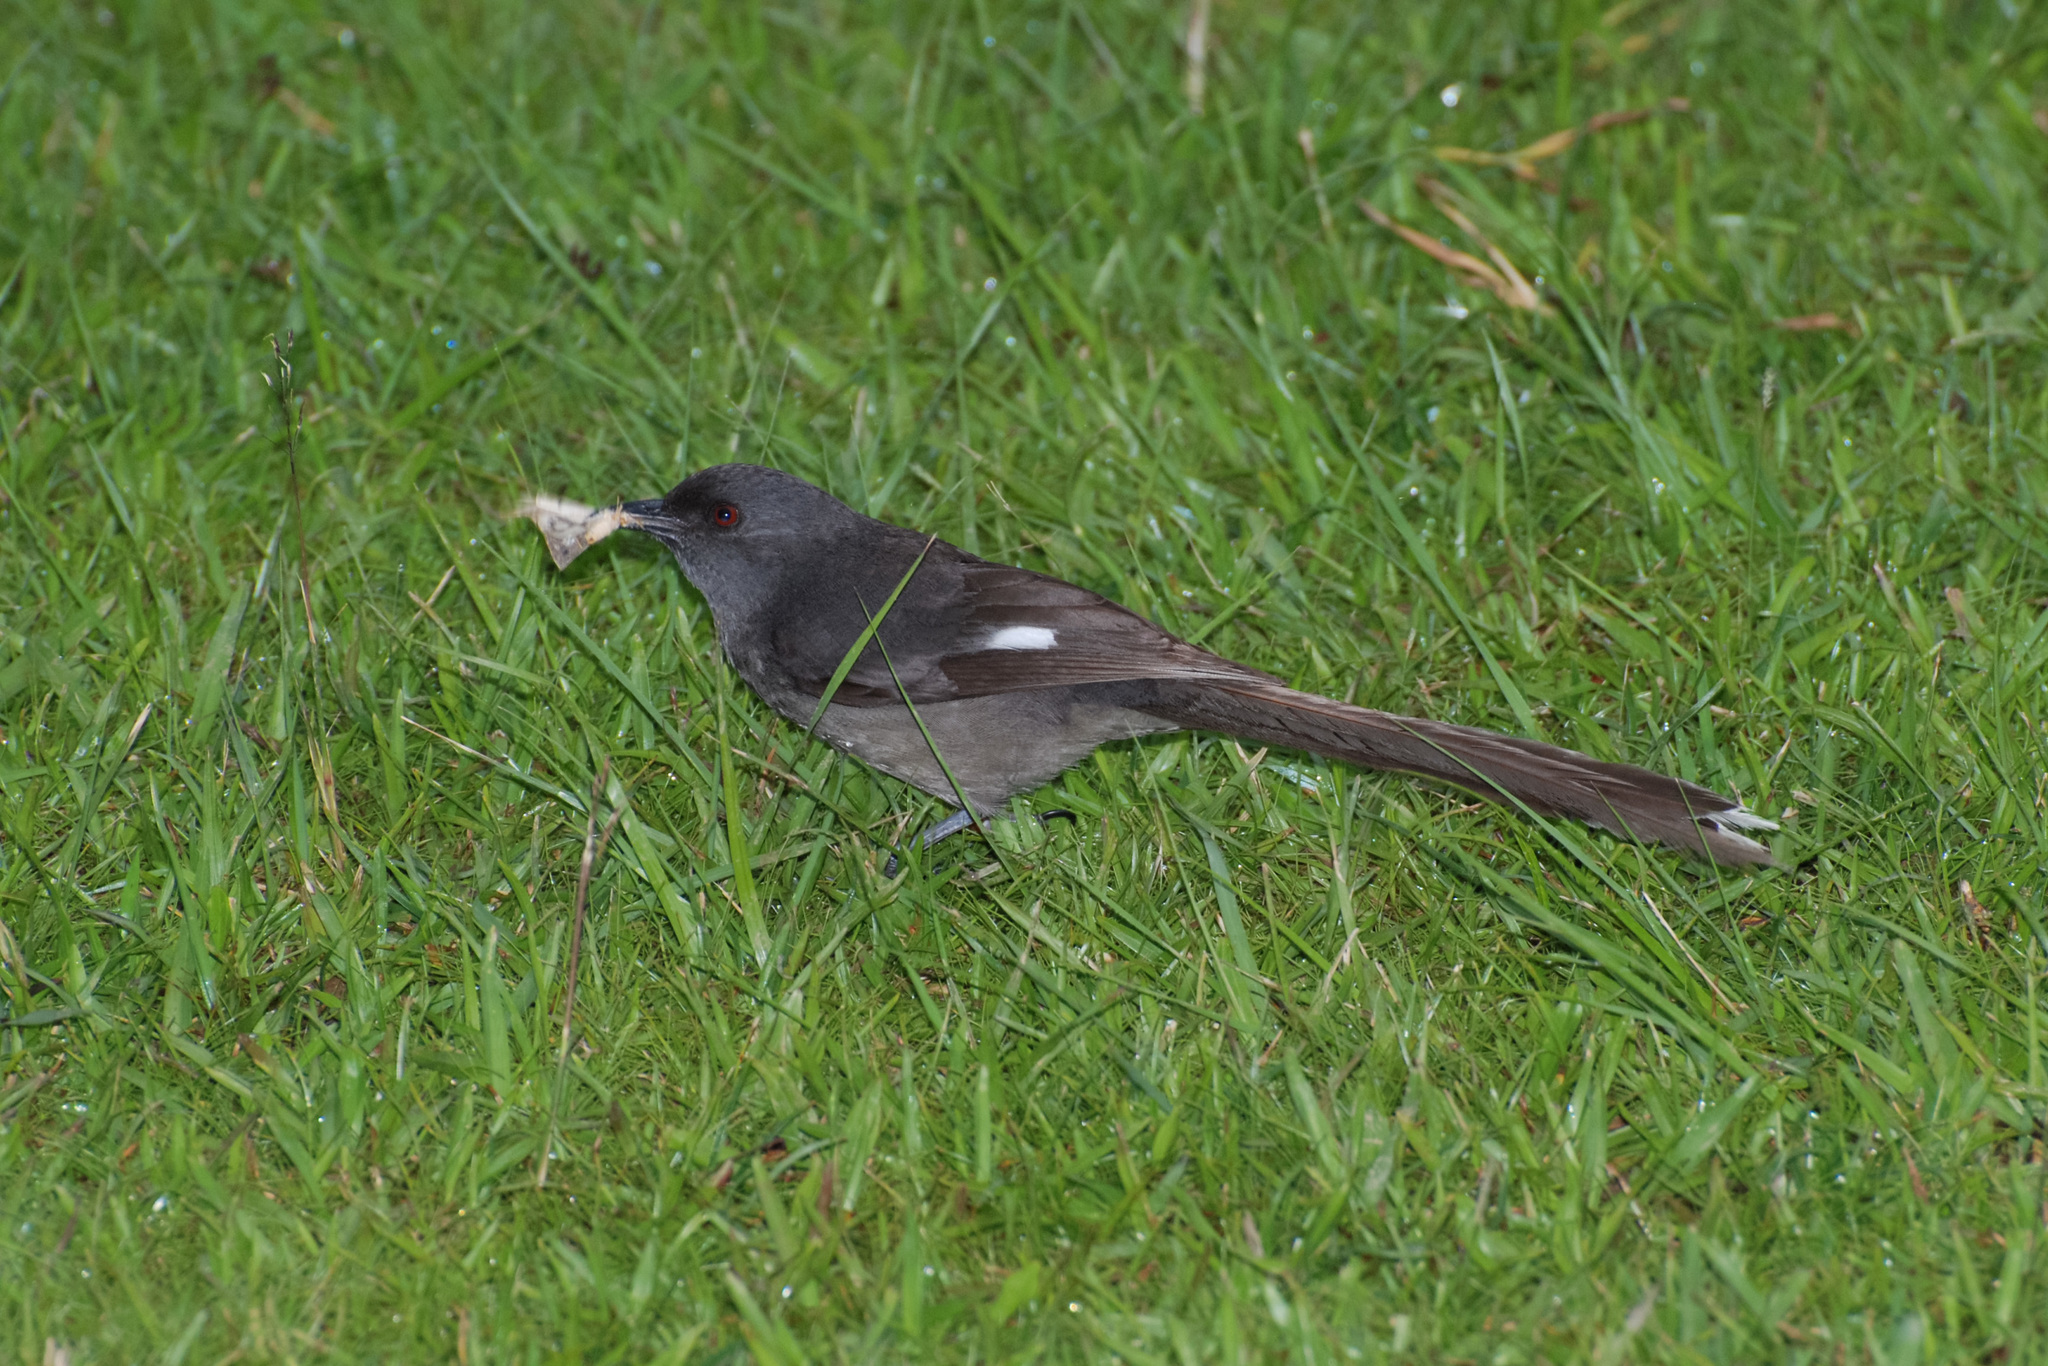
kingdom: Animalia
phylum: Chordata
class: Aves
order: Passeriformes
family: Leiothrichidae
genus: Heterophasia
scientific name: Heterophasia picaoides
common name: Long-tailed sibia
